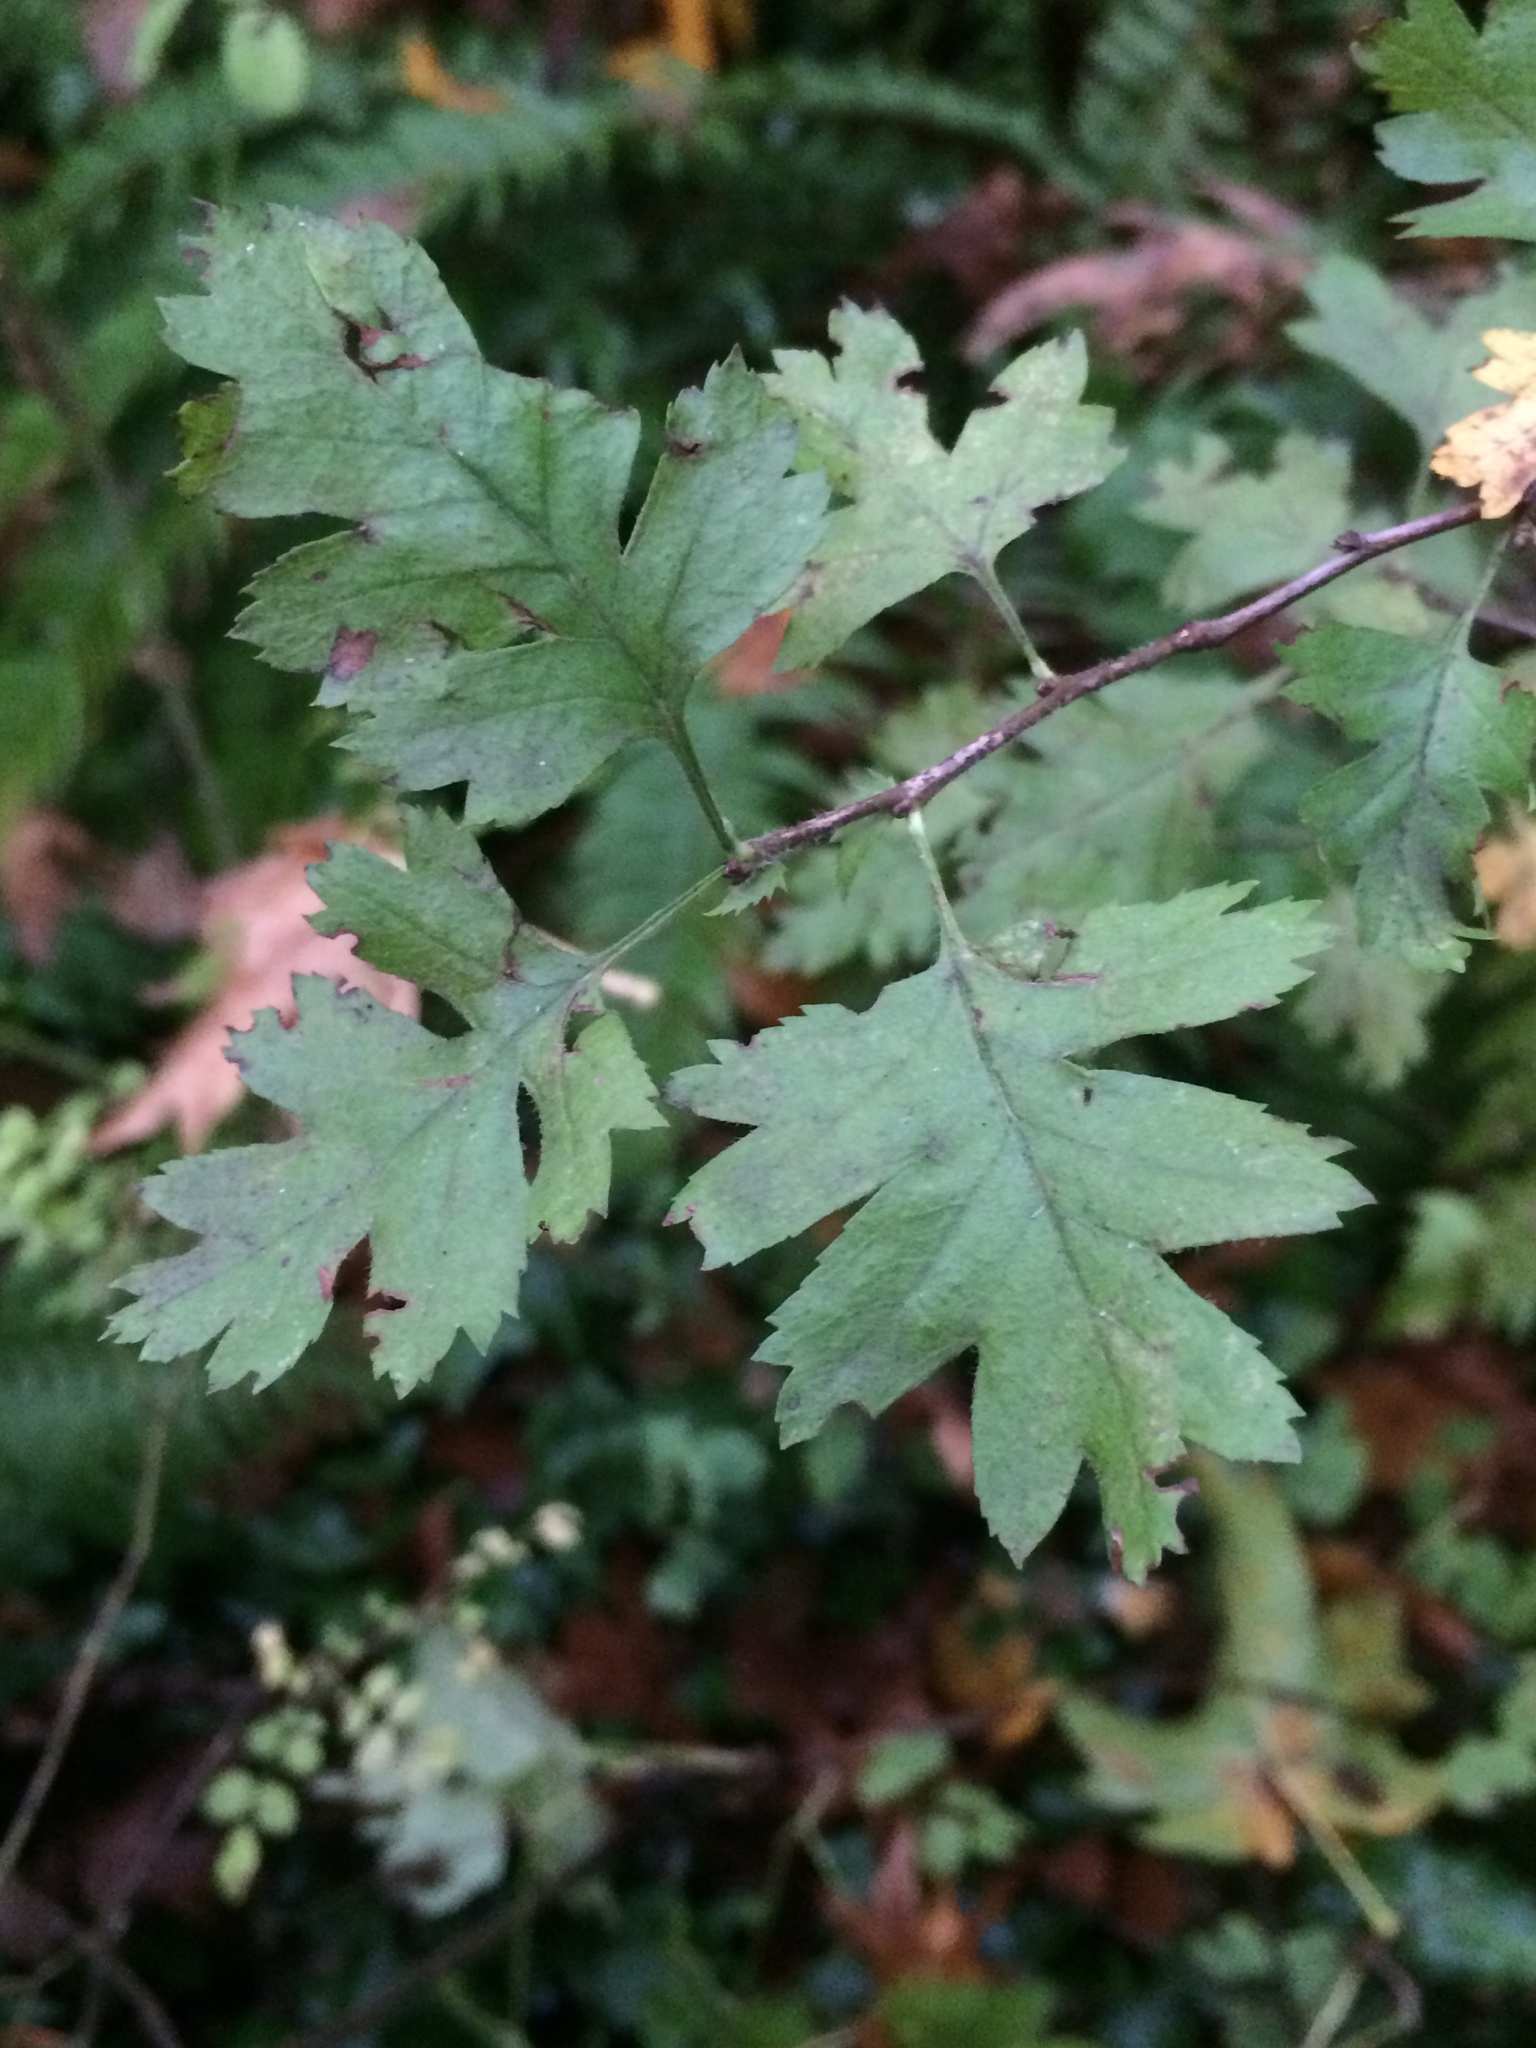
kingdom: Plantae
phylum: Tracheophyta
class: Magnoliopsida
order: Rosales
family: Rosaceae
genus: Crataegus
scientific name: Crataegus monogyna
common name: Hawthorn
